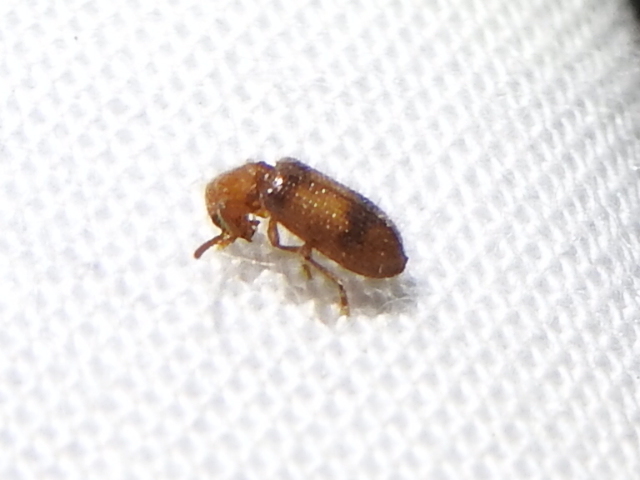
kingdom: Animalia
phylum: Arthropoda
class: Insecta
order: Coleoptera
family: Cleridae
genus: Cymatodera
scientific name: Cymatodera puncticollis
